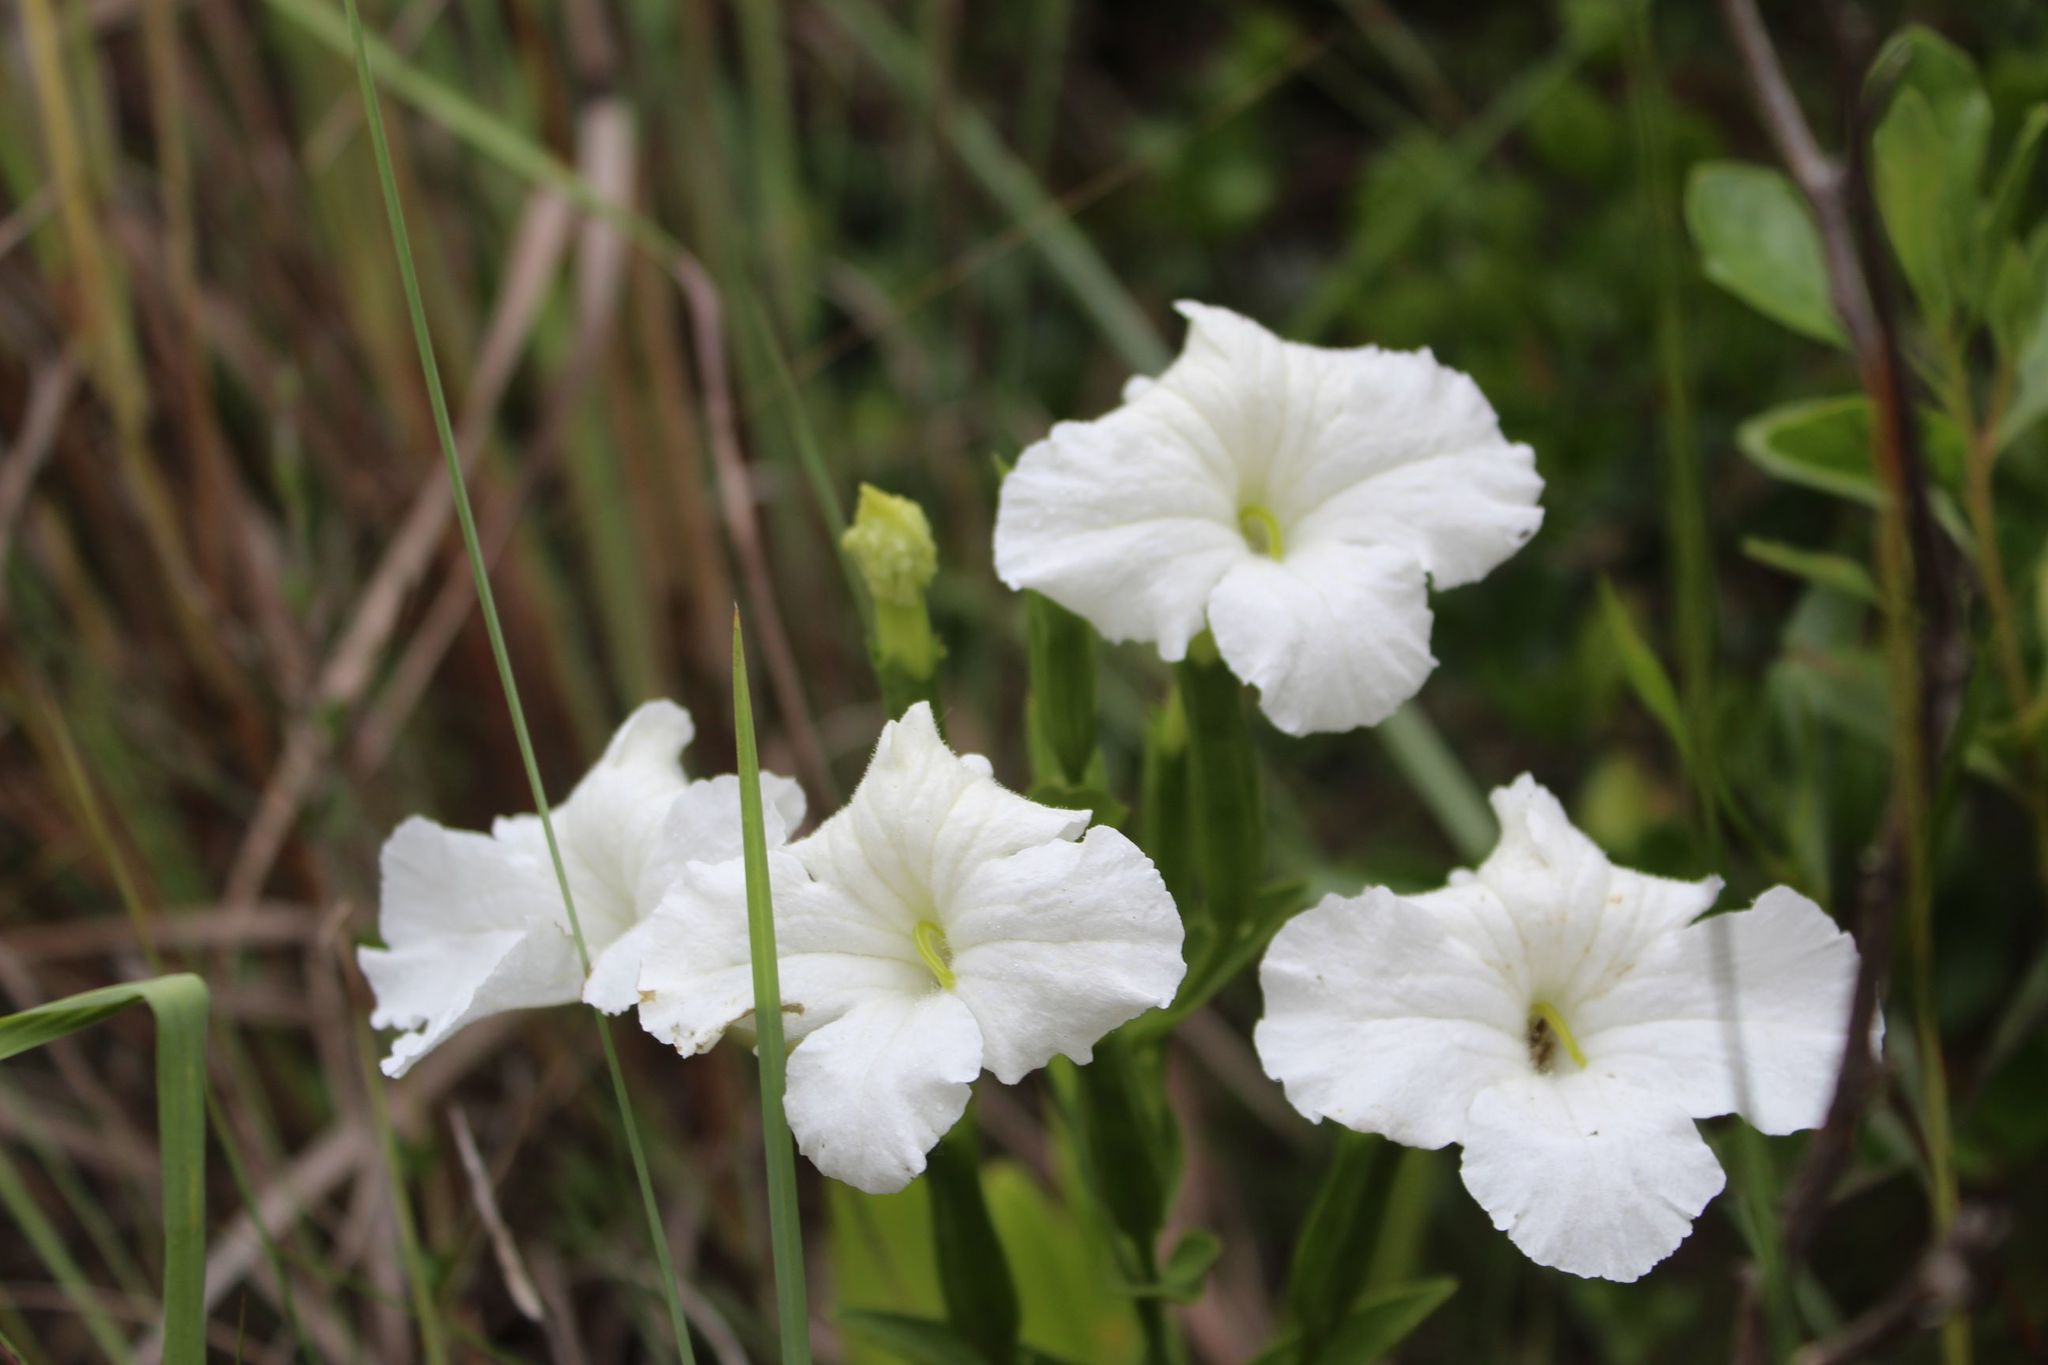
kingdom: Plantae
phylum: Tracheophyta
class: Magnoliopsida
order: Lamiales
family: Orobanchaceae
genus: Escobedia
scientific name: Escobedia grandiflora
